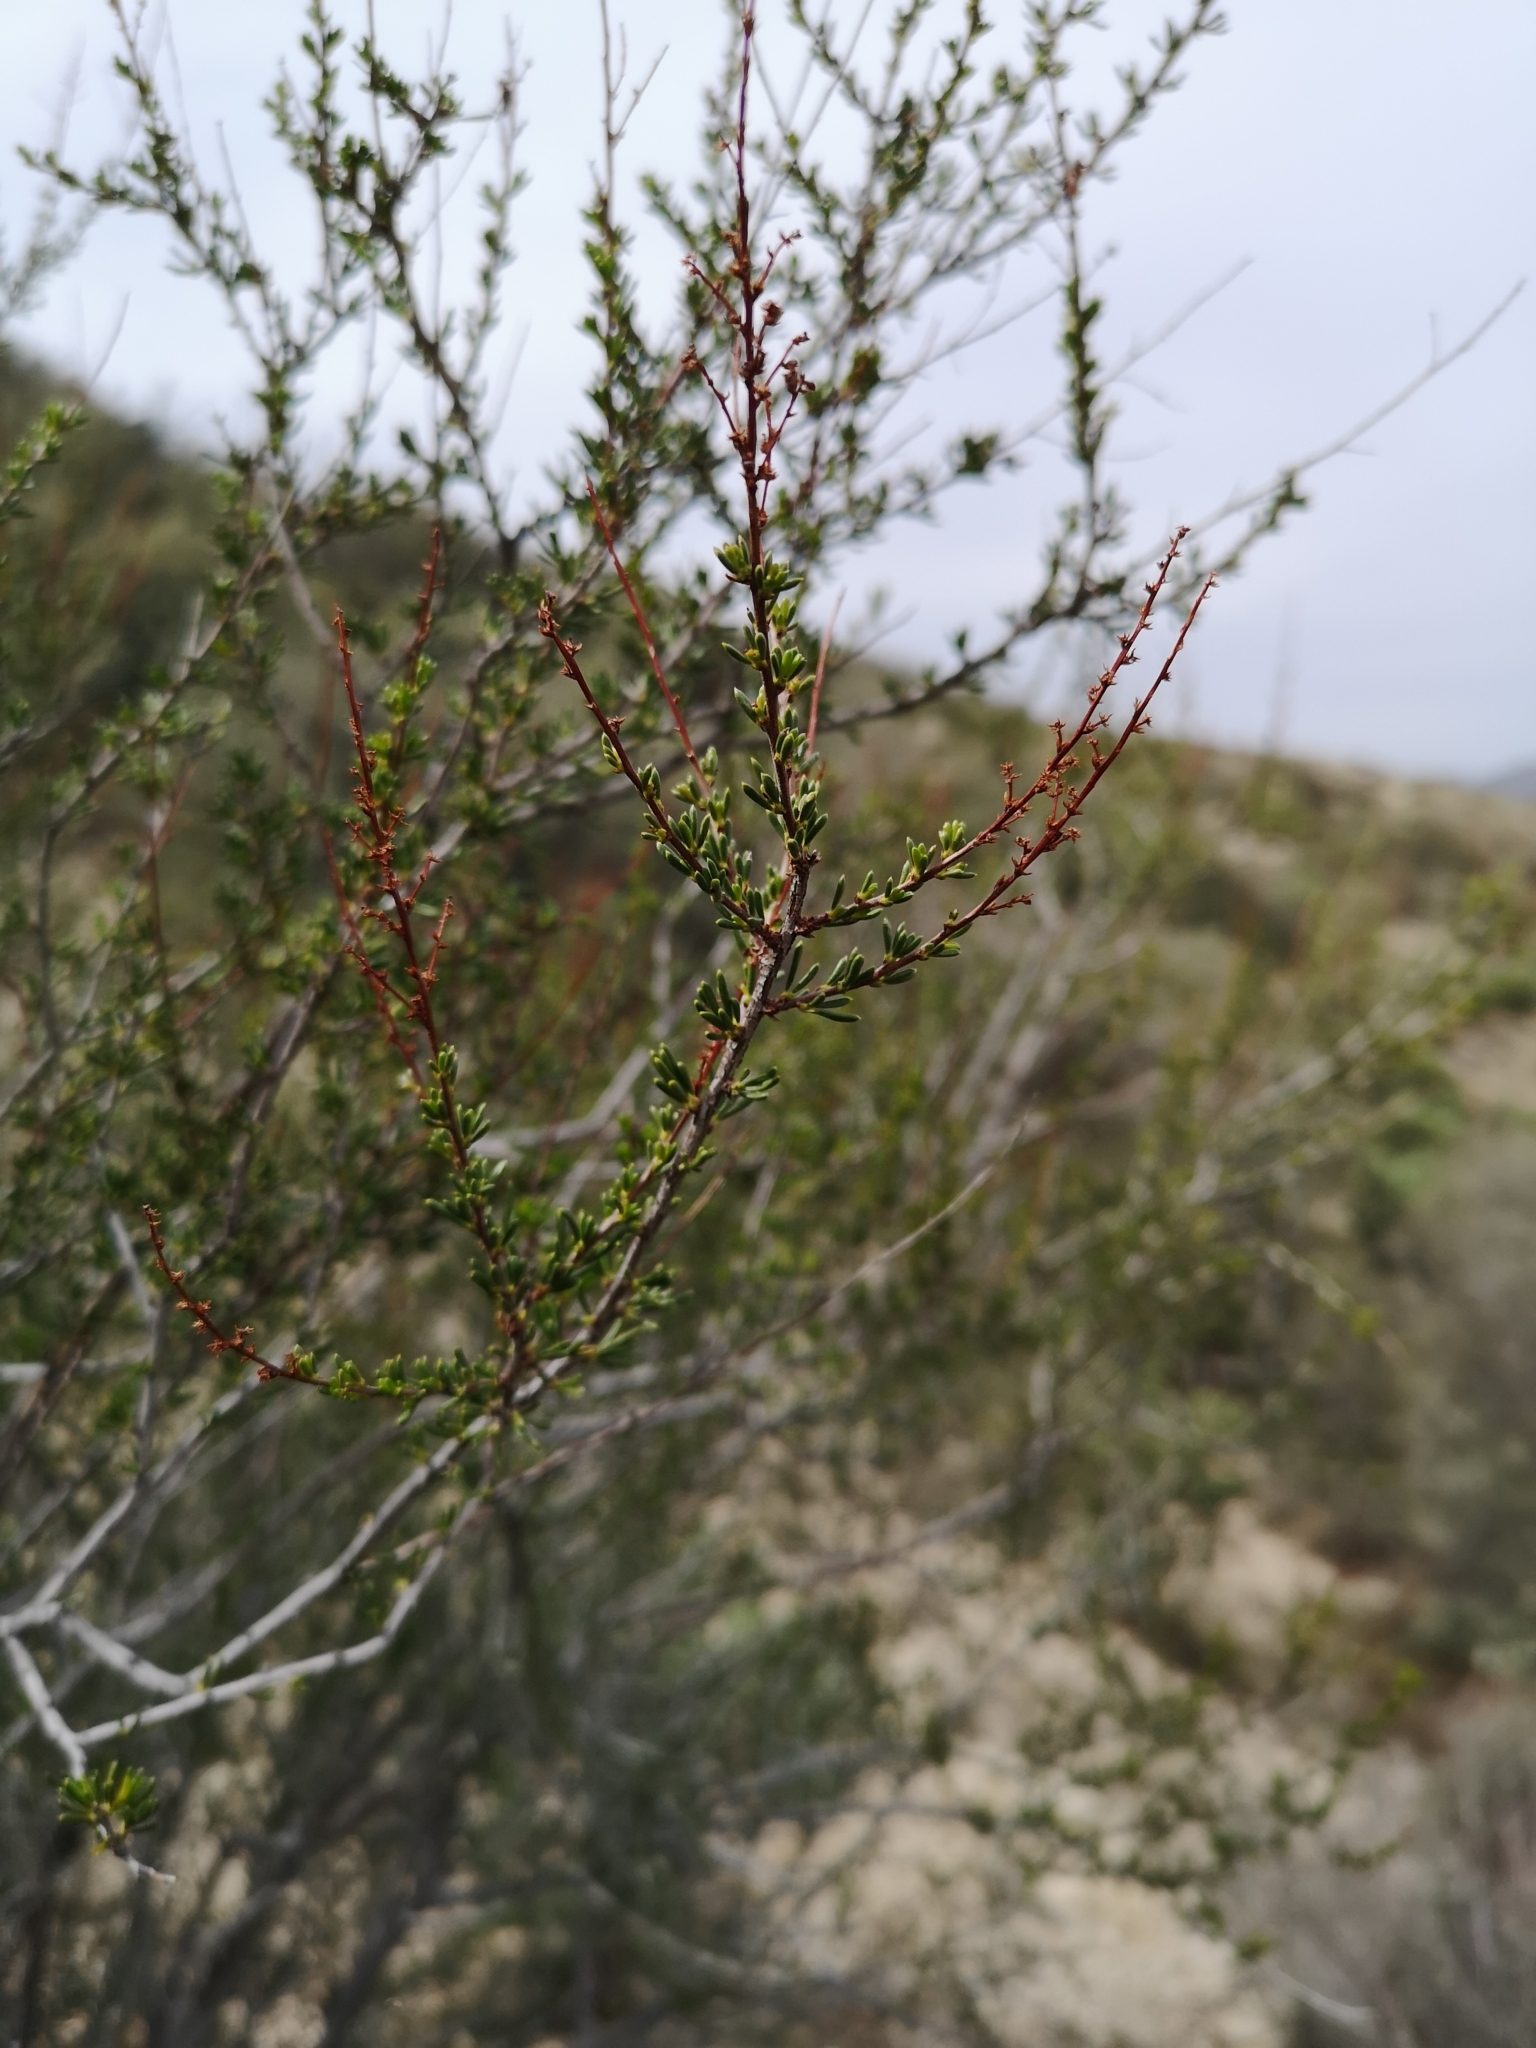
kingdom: Plantae
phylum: Tracheophyta
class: Magnoliopsida
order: Rosales
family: Rosaceae
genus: Adenostoma
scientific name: Adenostoma fasciculatum
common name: Chamise
